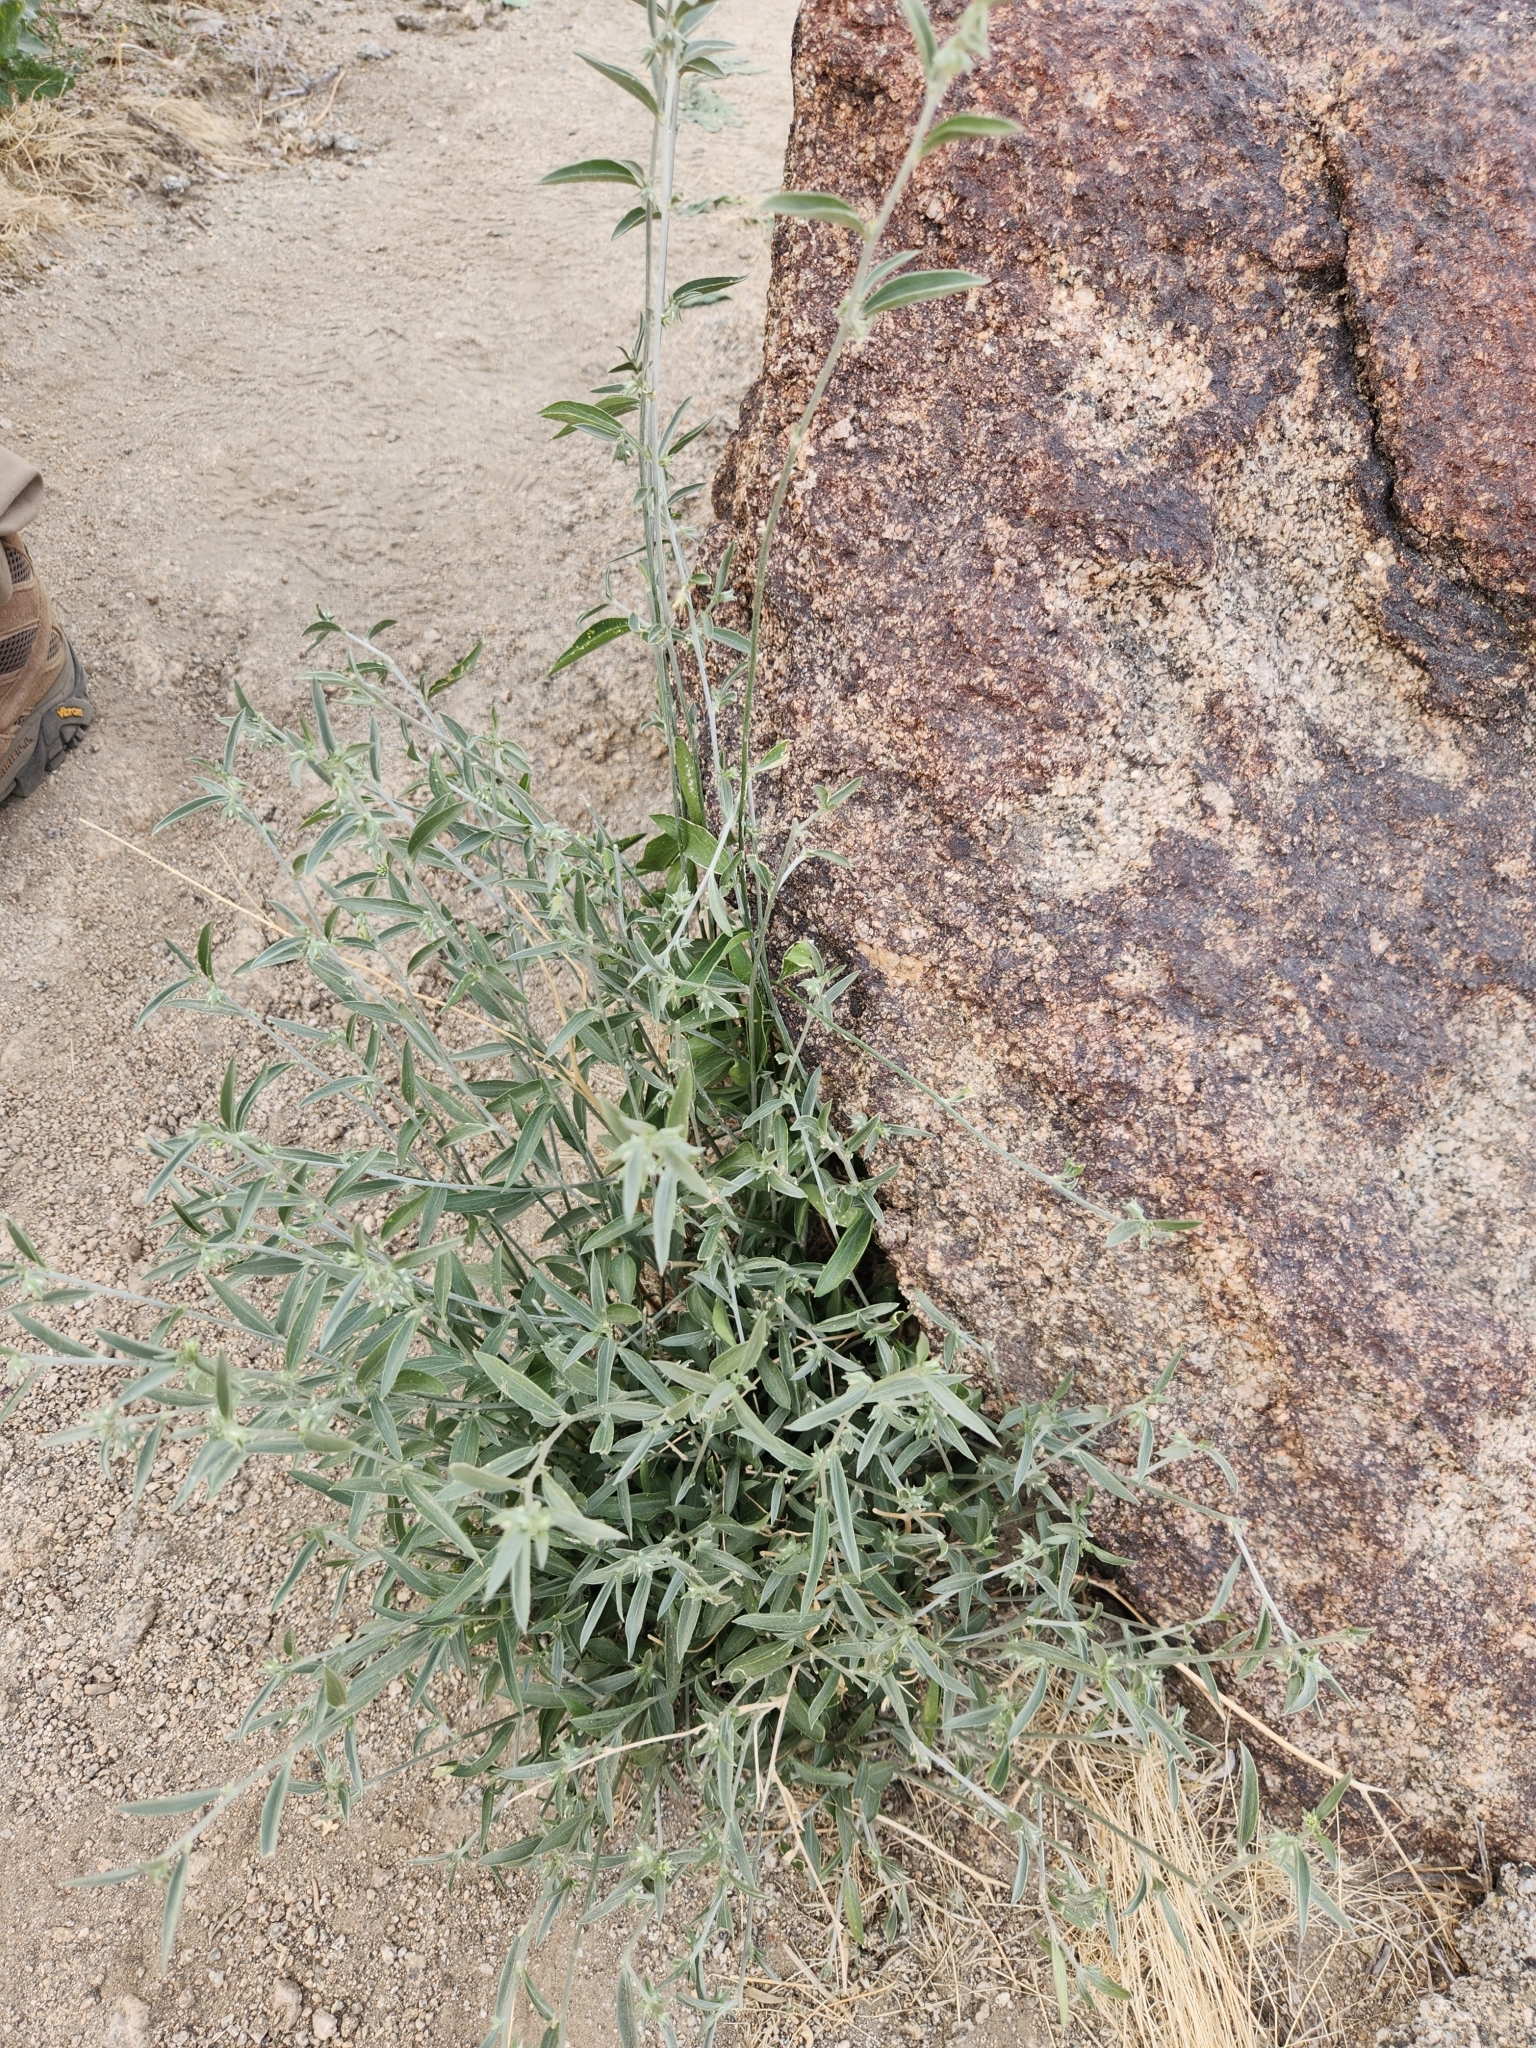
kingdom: Plantae
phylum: Tracheophyta
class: Magnoliopsida
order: Malpighiales
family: Euphorbiaceae
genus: Ditaxis
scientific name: Ditaxis lanceolata
